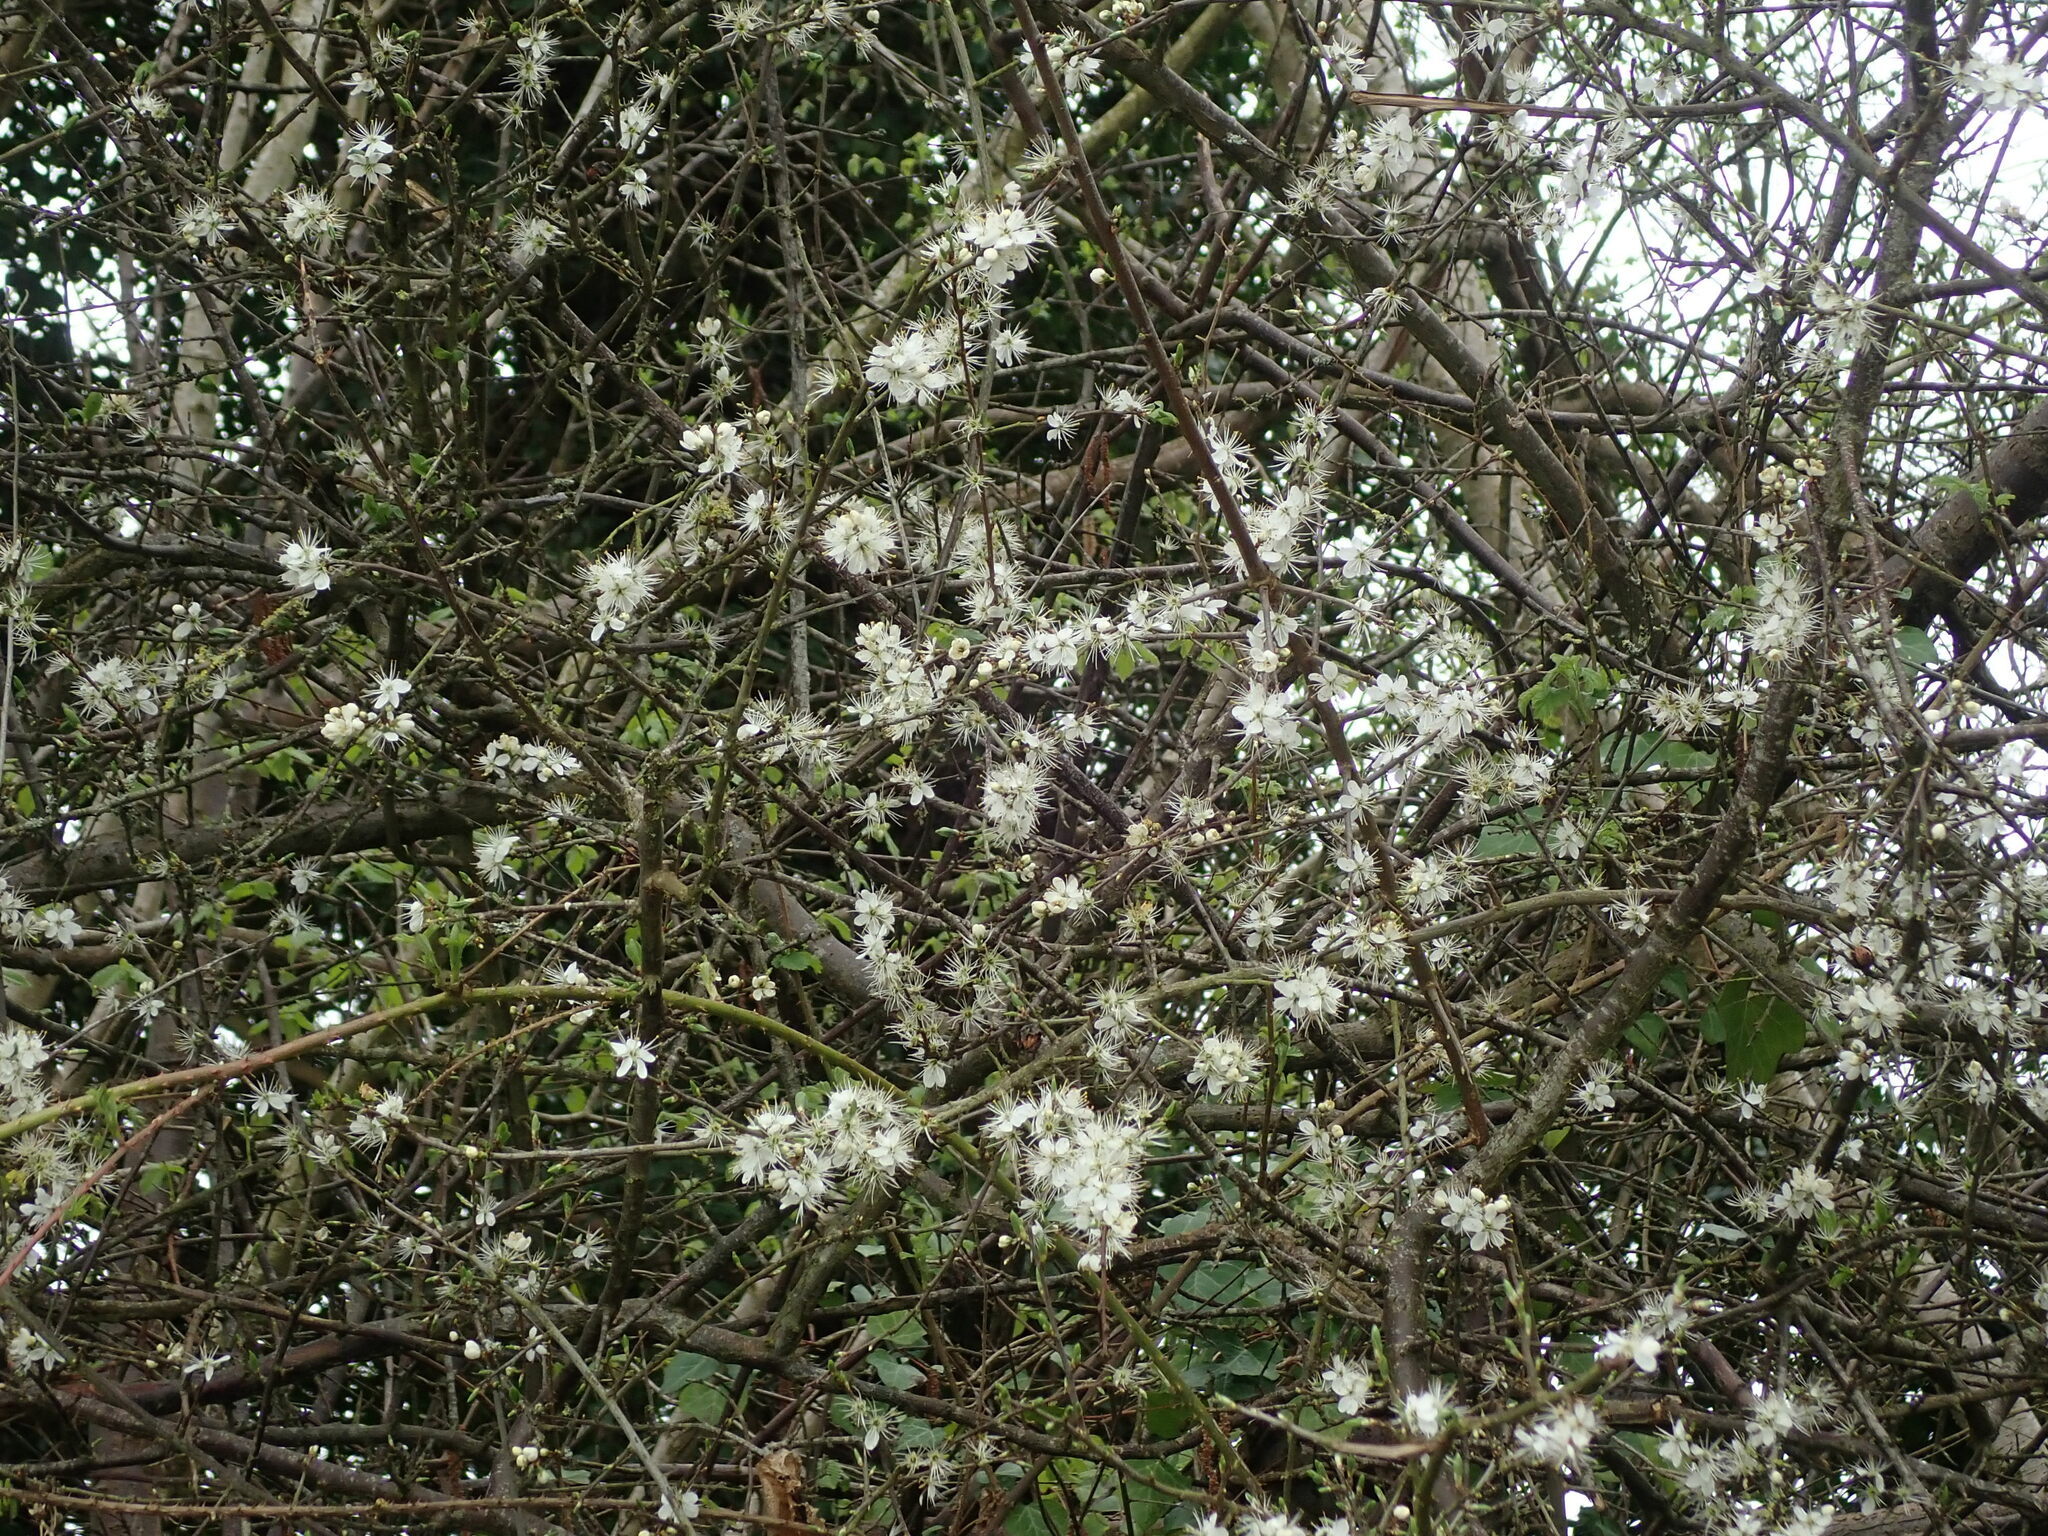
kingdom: Plantae
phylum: Tracheophyta
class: Magnoliopsida
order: Rosales
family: Rosaceae
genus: Prunus
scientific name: Prunus spinosa
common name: Blackthorn
